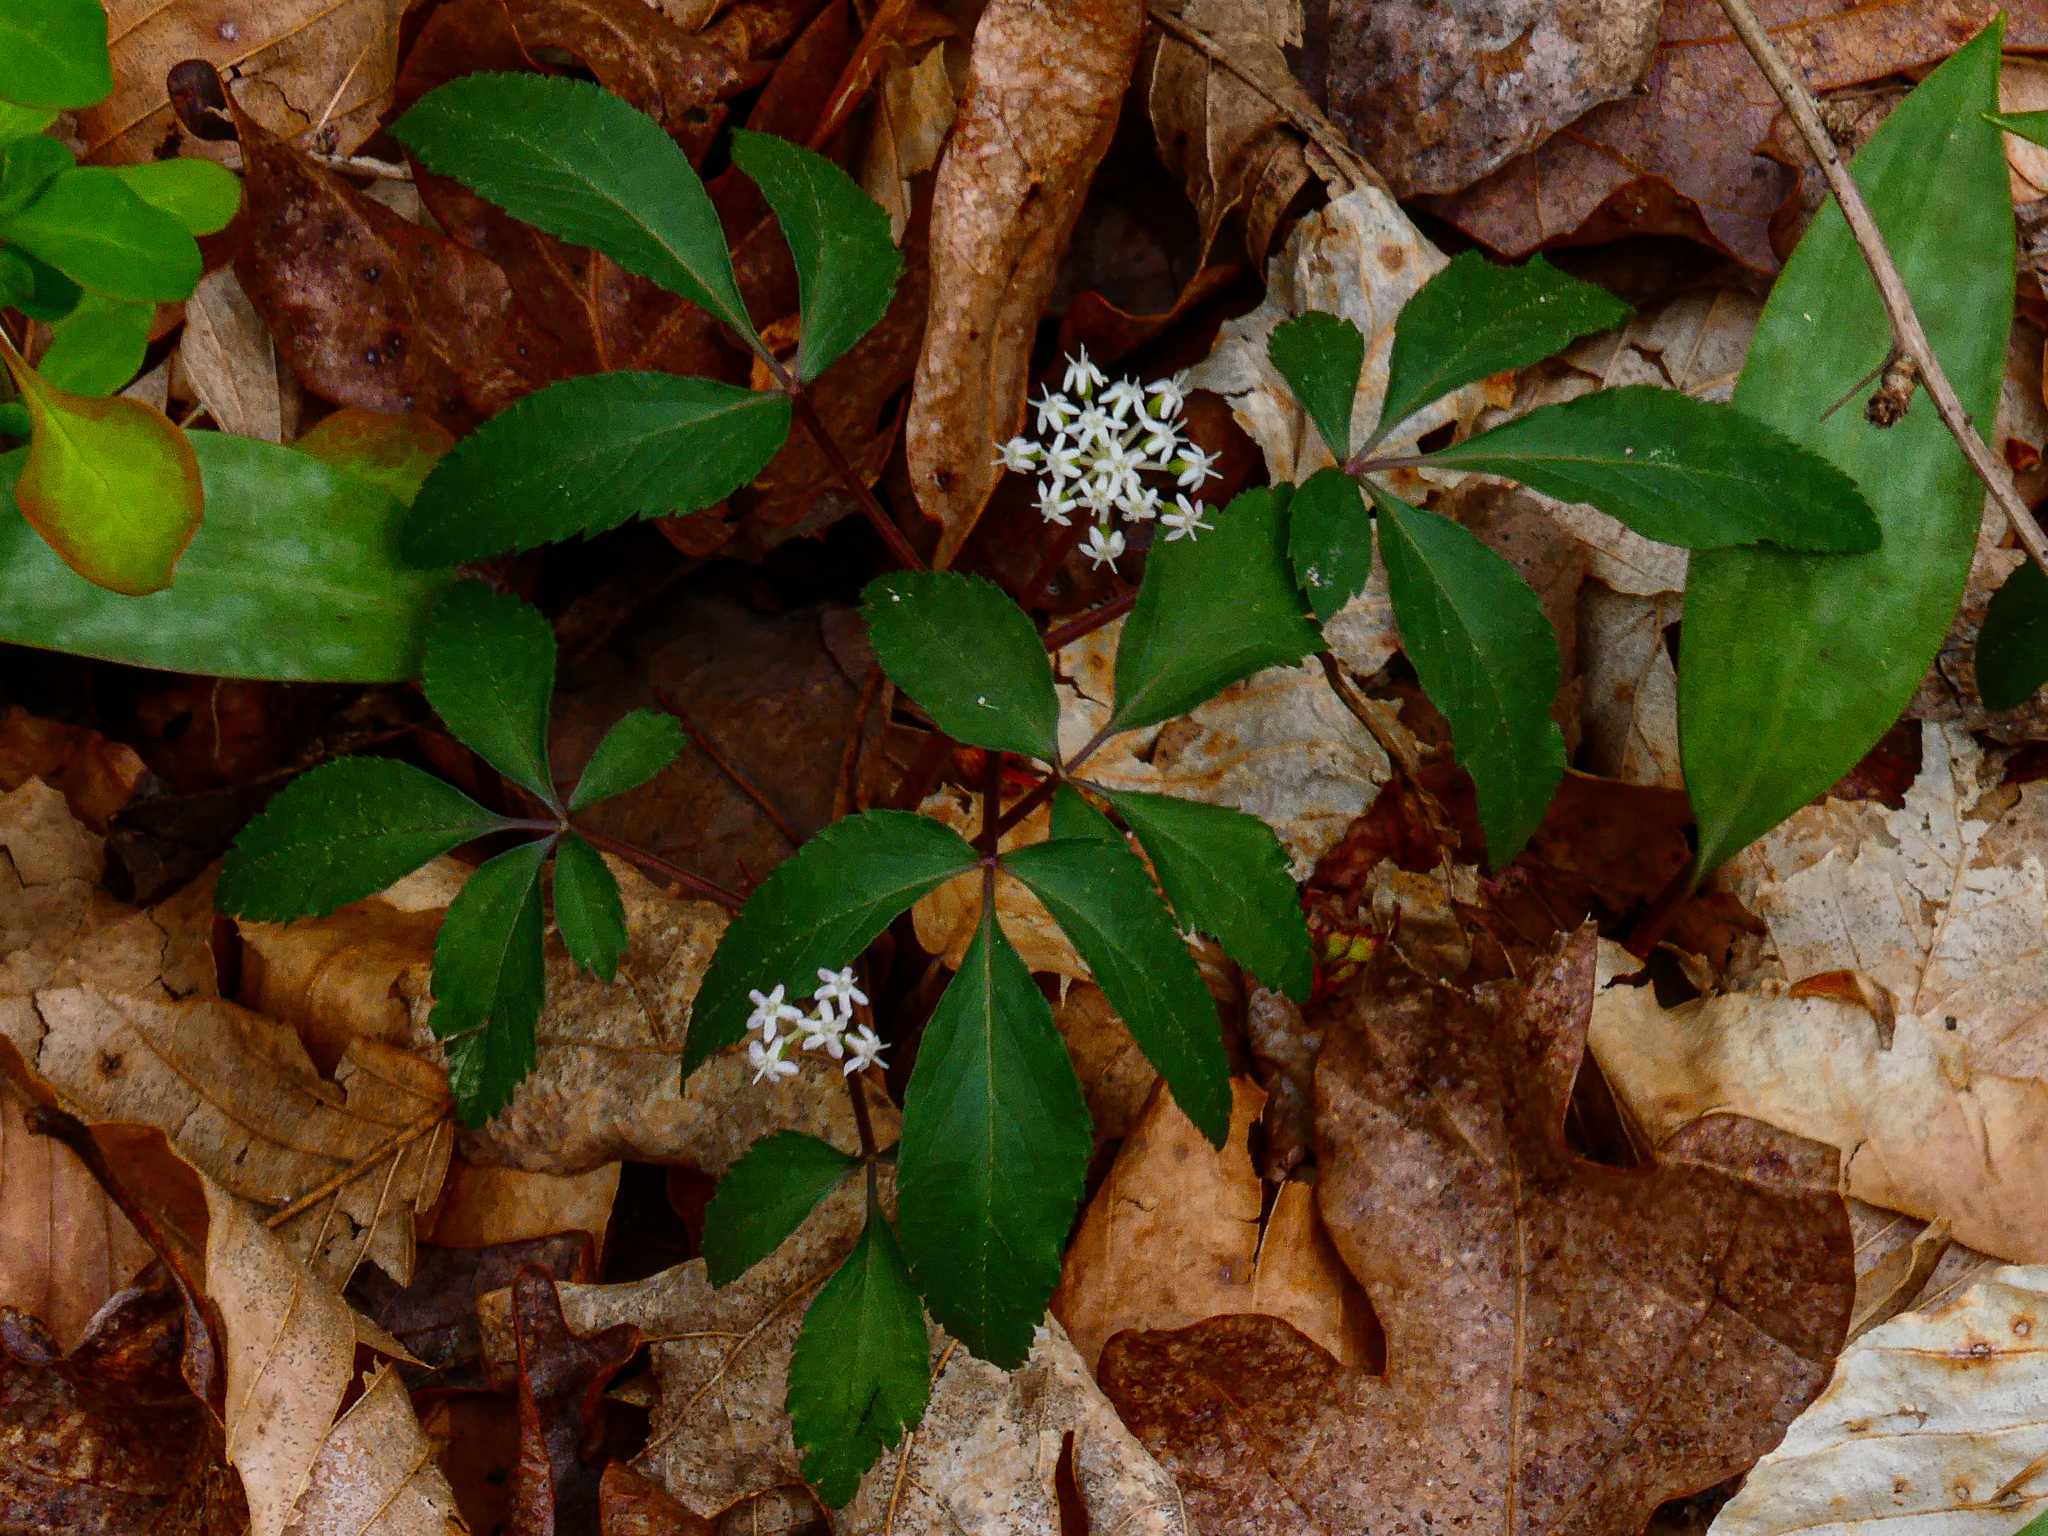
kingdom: Plantae
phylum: Tracheophyta
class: Magnoliopsida
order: Apiales
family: Araliaceae
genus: Panax
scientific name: Panax trifolius
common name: Dwarf ginseng
